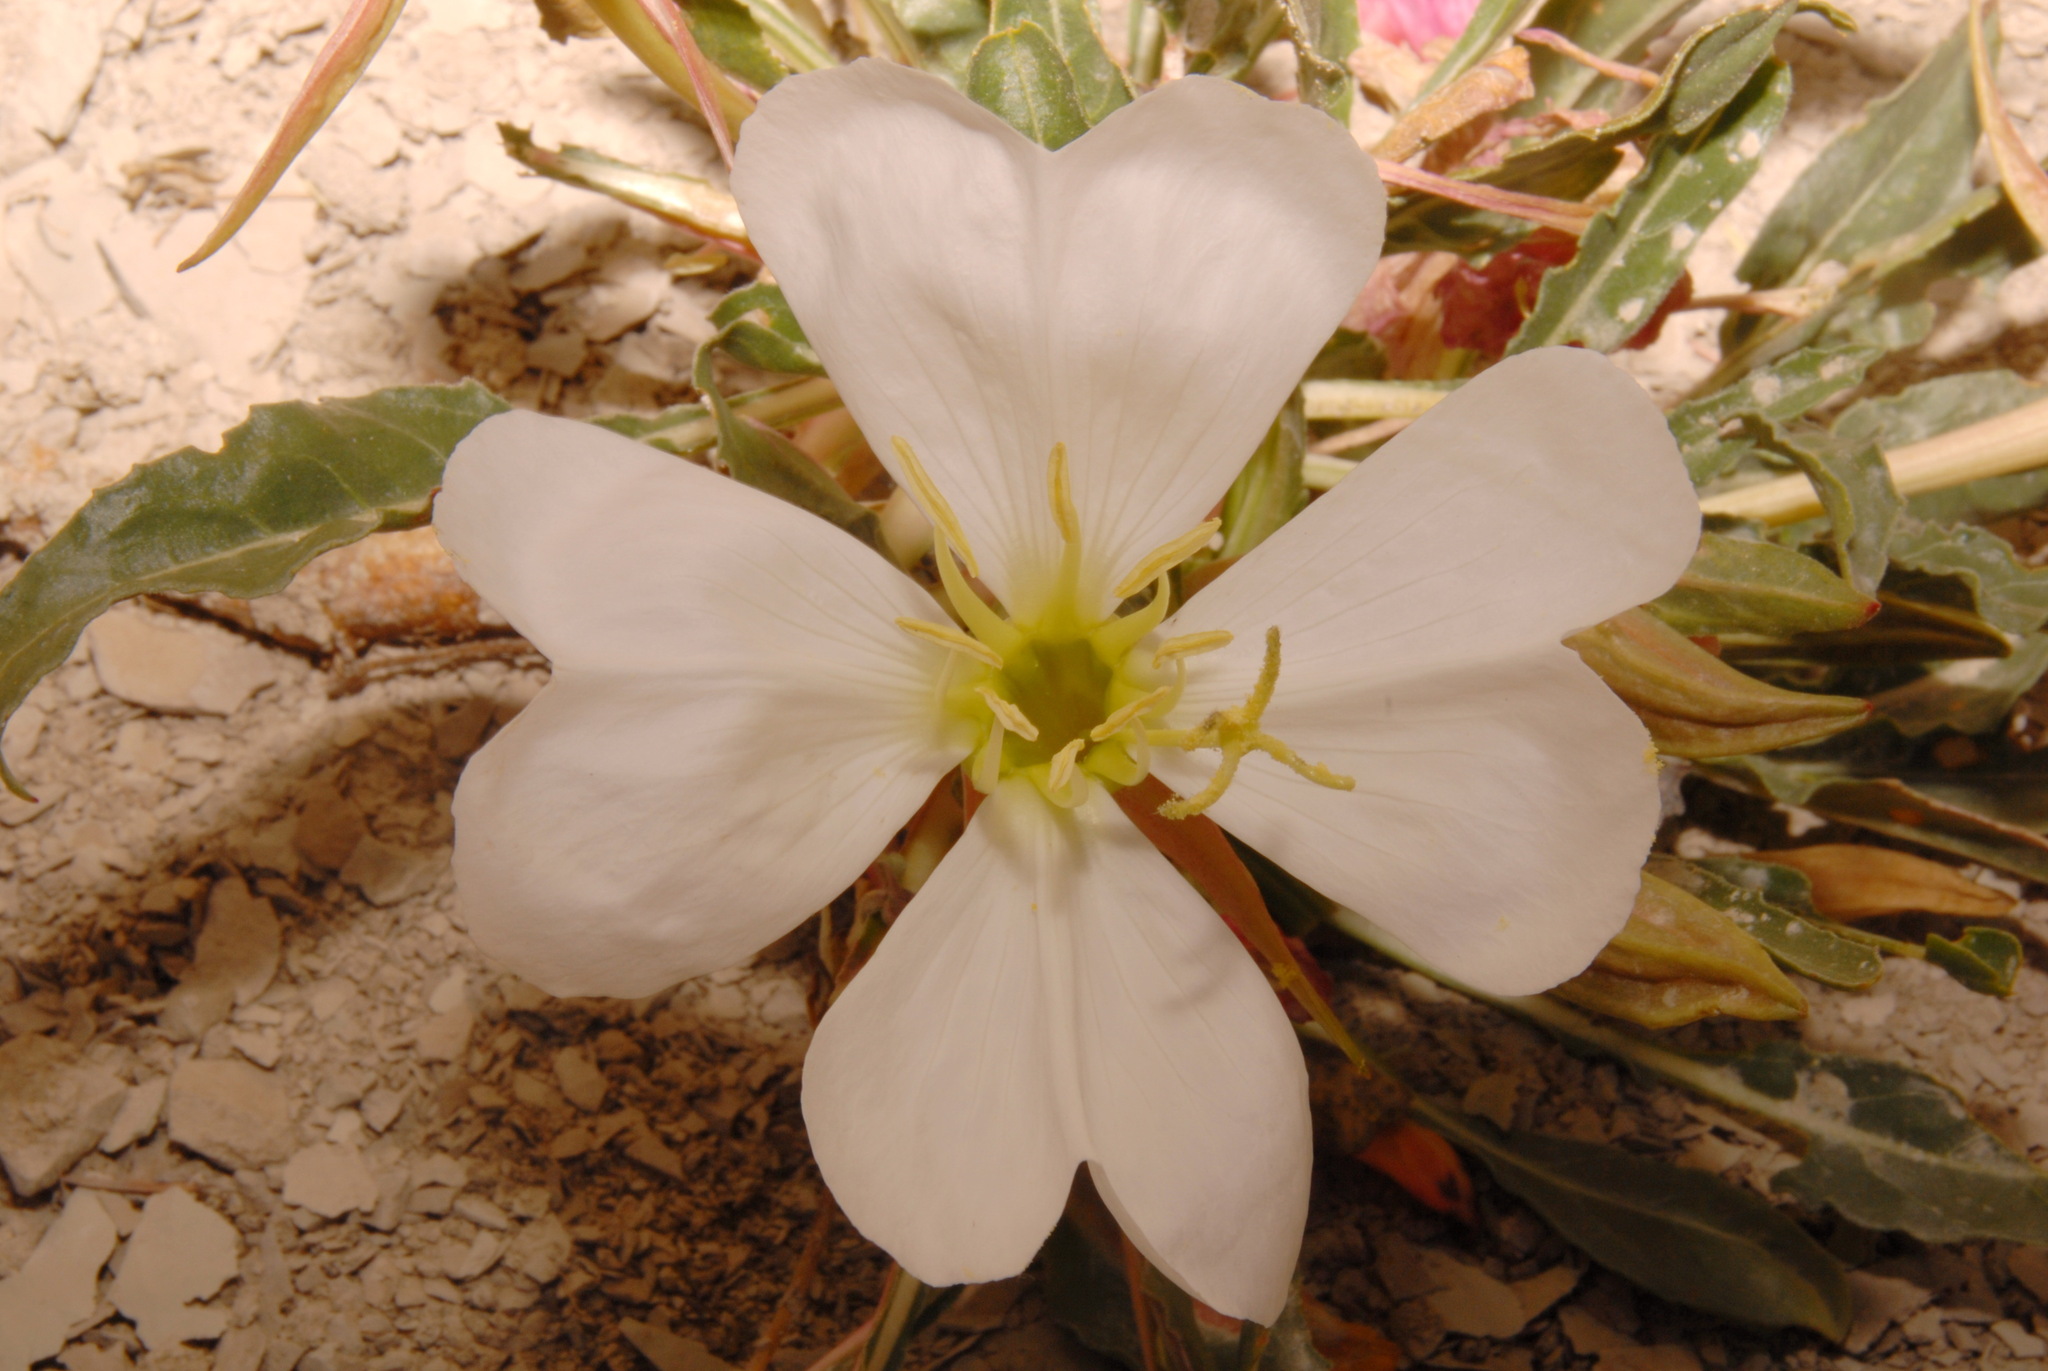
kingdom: Plantae
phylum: Tracheophyta
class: Magnoliopsida
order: Myrtales
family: Onagraceae
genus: Oenothera
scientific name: Oenothera cespitosa
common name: Tufted evening-primrose
